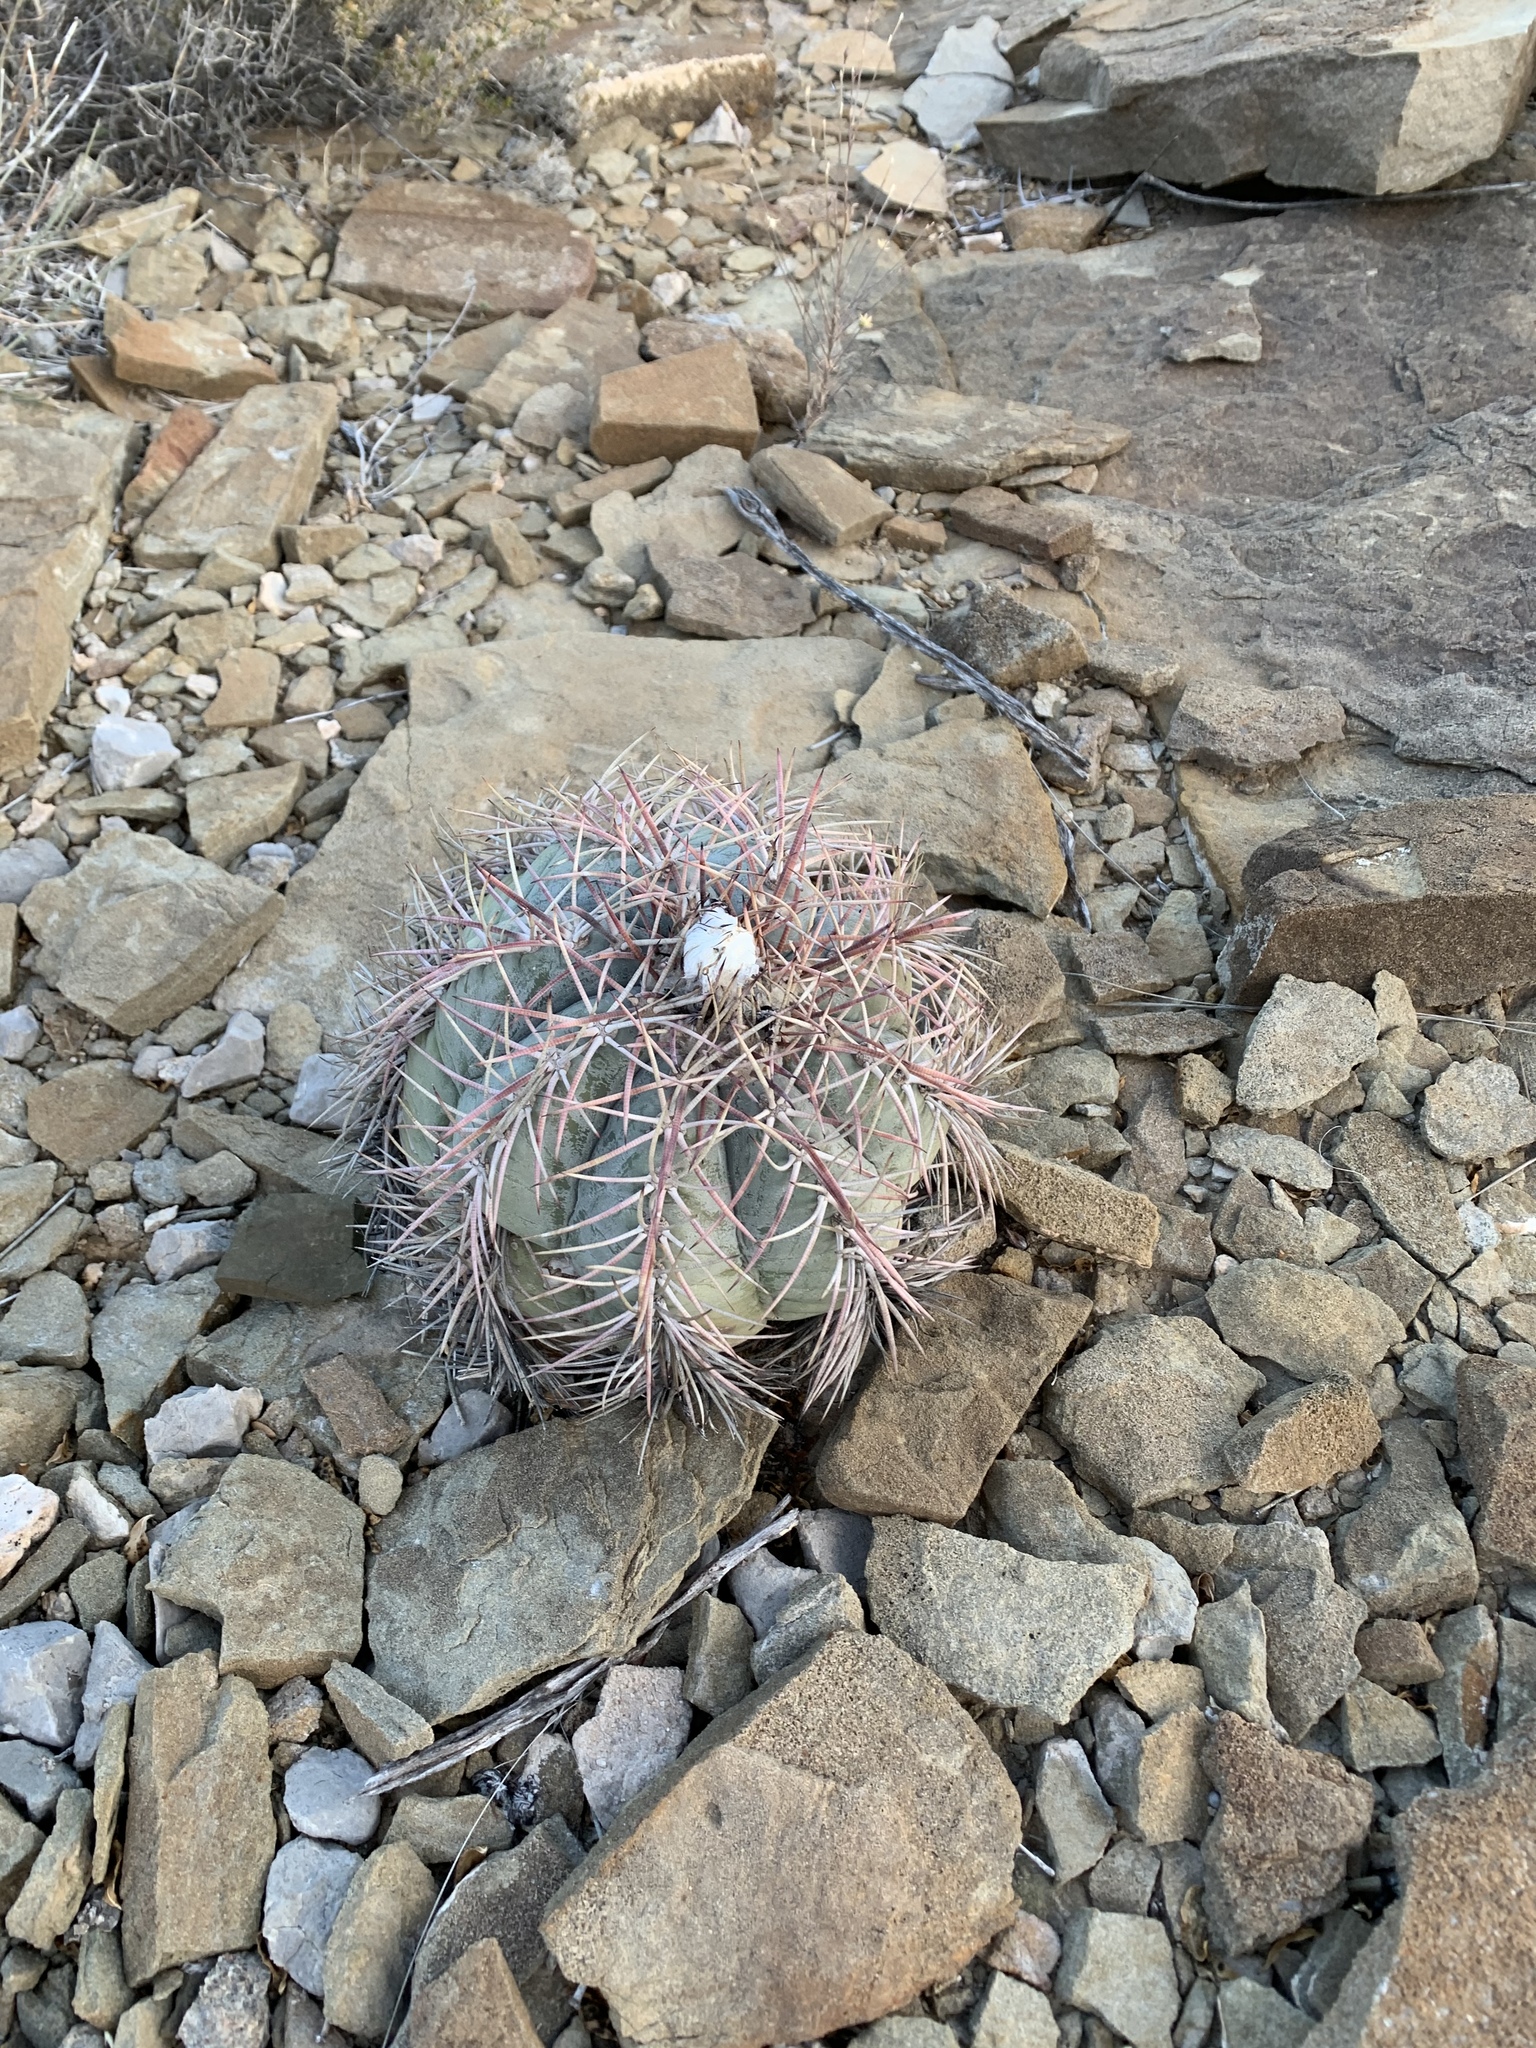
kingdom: Plantae
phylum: Tracheophyta
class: Magnoliopsida
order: Caryophyllales
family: Cactaceae
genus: Echinocactus
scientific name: Echinocactus horizonthalonius
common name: Devilshead
